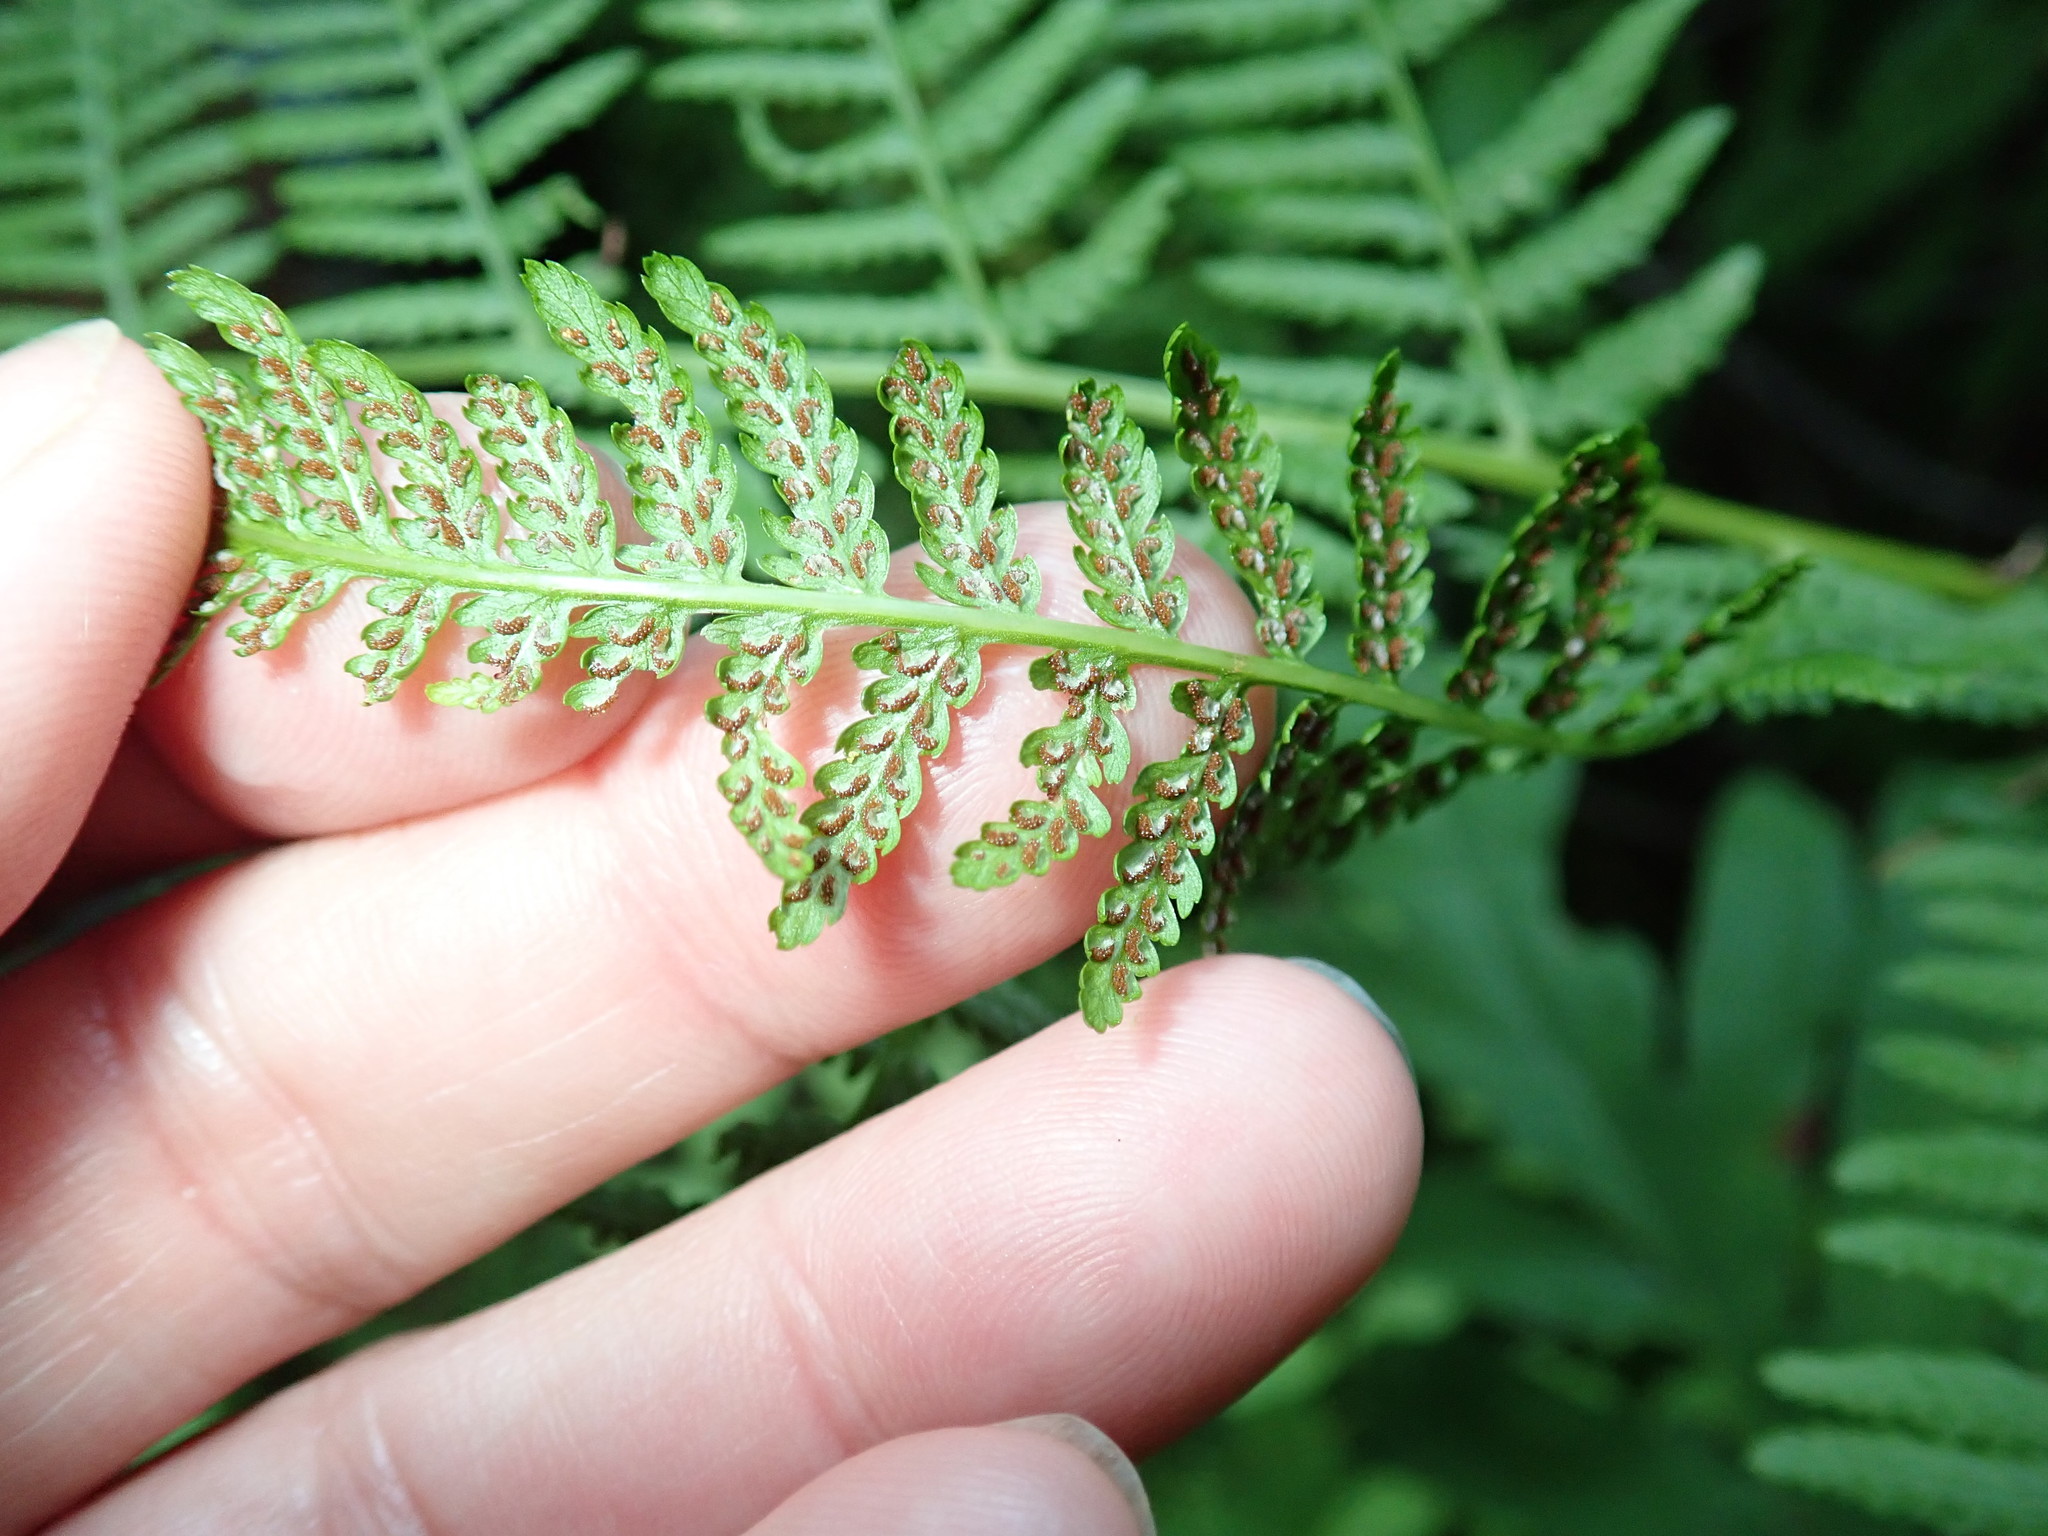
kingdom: Plantae
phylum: Tracheophyta
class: Polypodiopsida
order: Polypodiales
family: Athyriaceae
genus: Athyrium
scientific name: Athyrium angustum
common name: Northern lady fern
